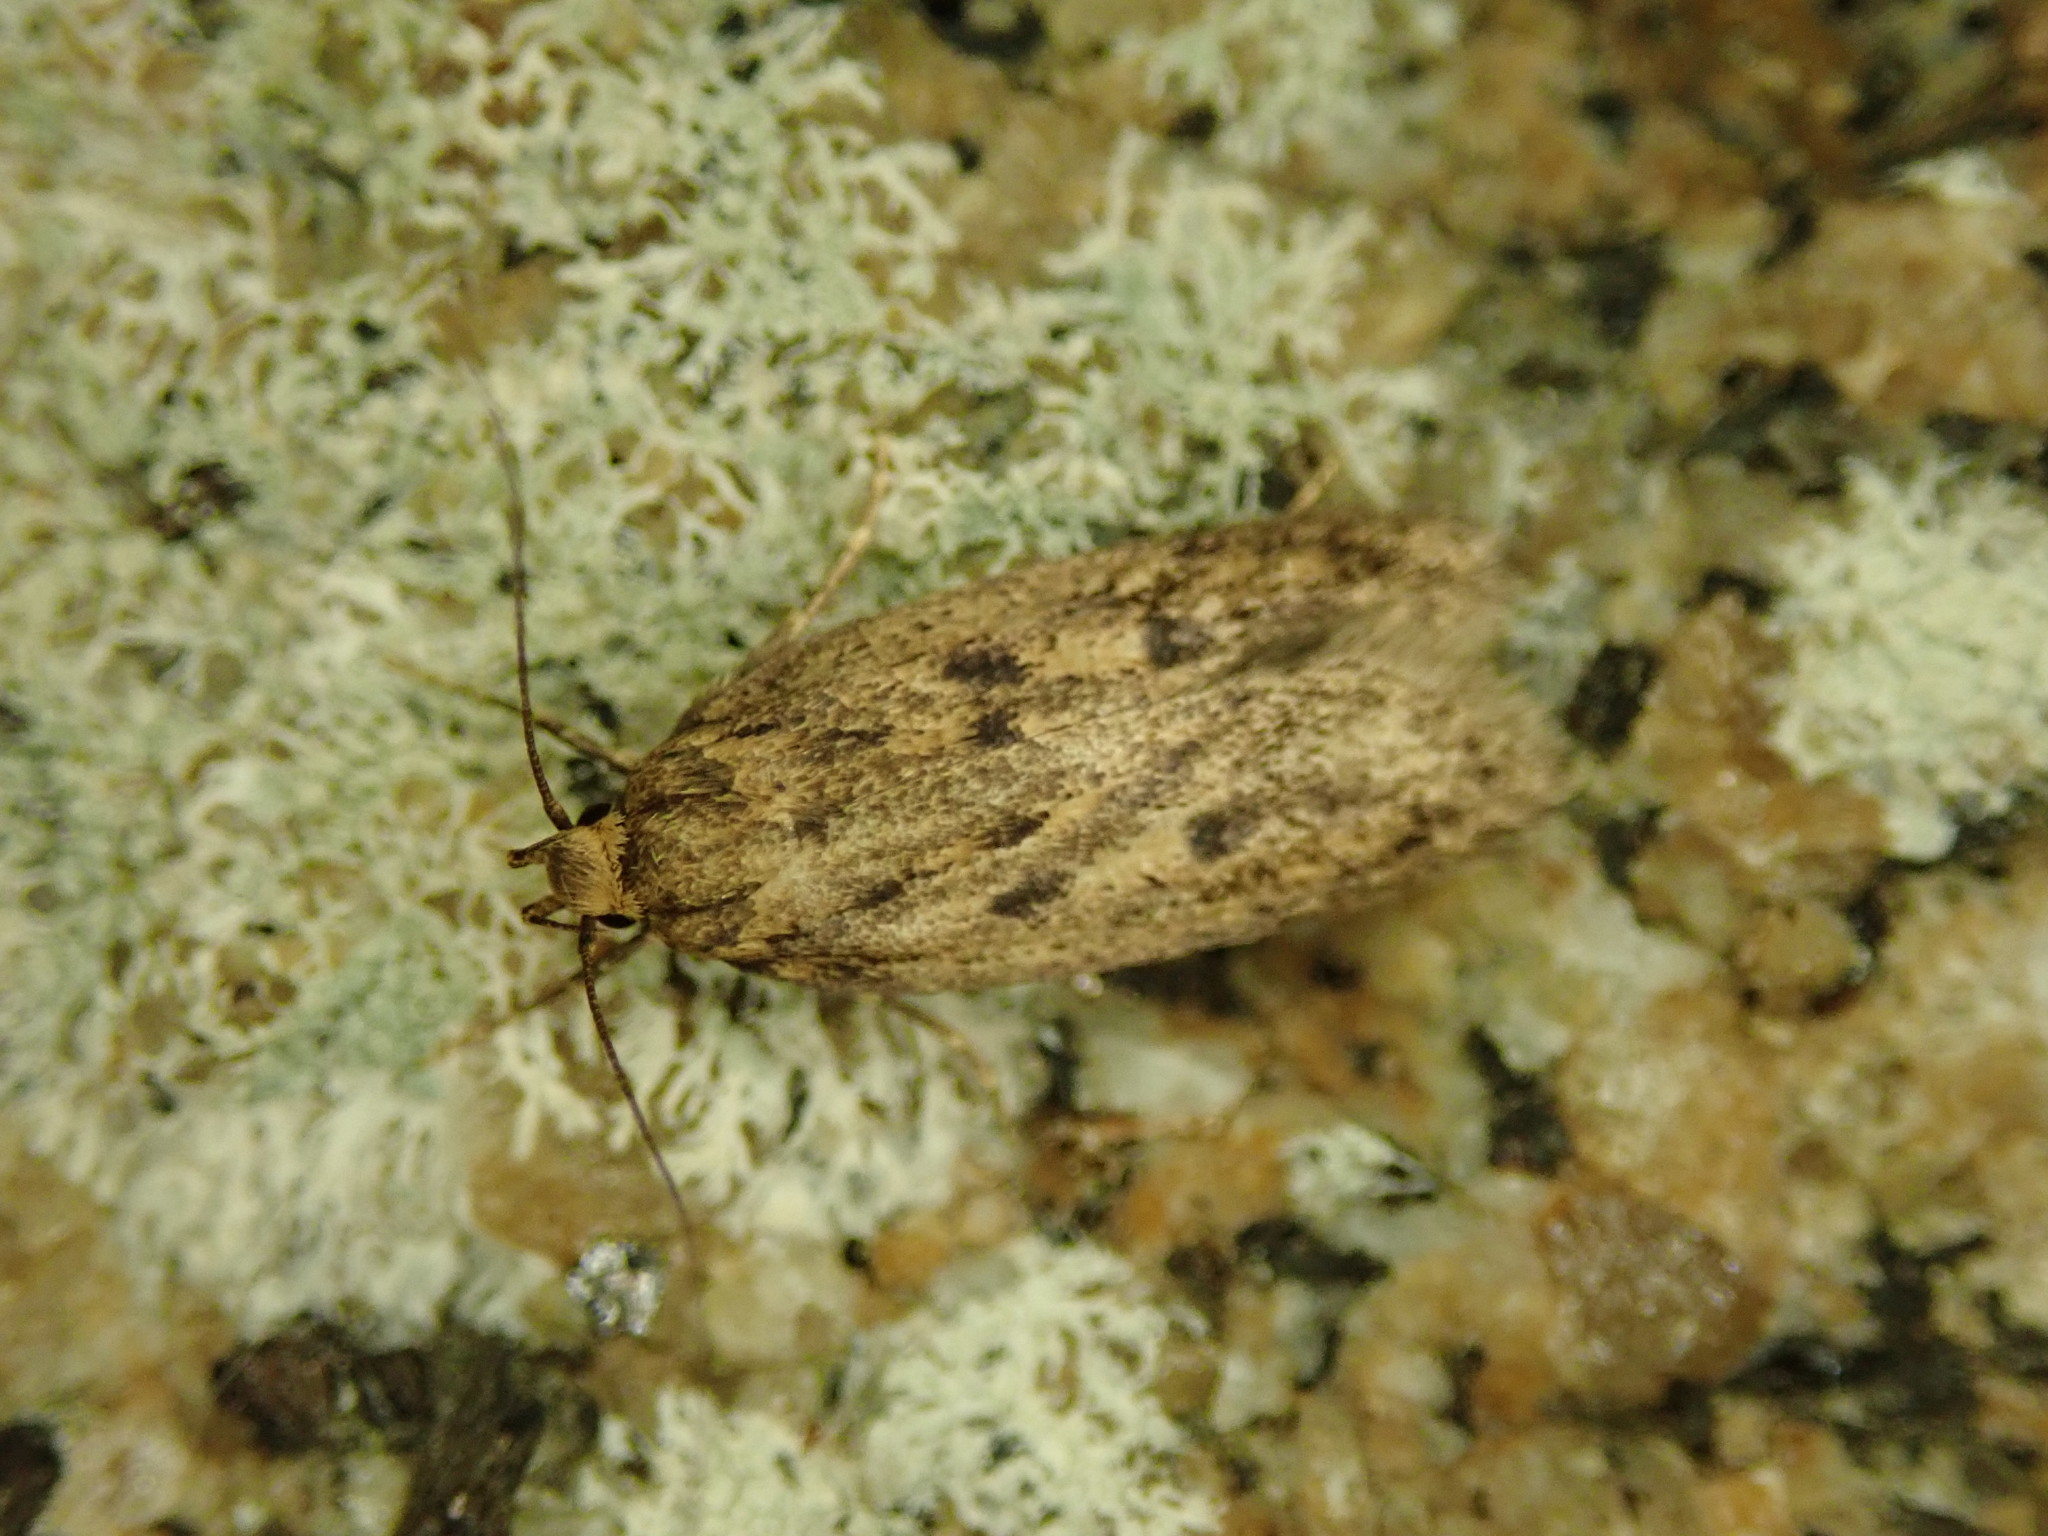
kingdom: Animalia
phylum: Arthropoda
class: Insecta
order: Lepidoptera
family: Oecophoridae
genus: Hofmannophila
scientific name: Hofmannophila pseudospretella
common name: Brown house moth
